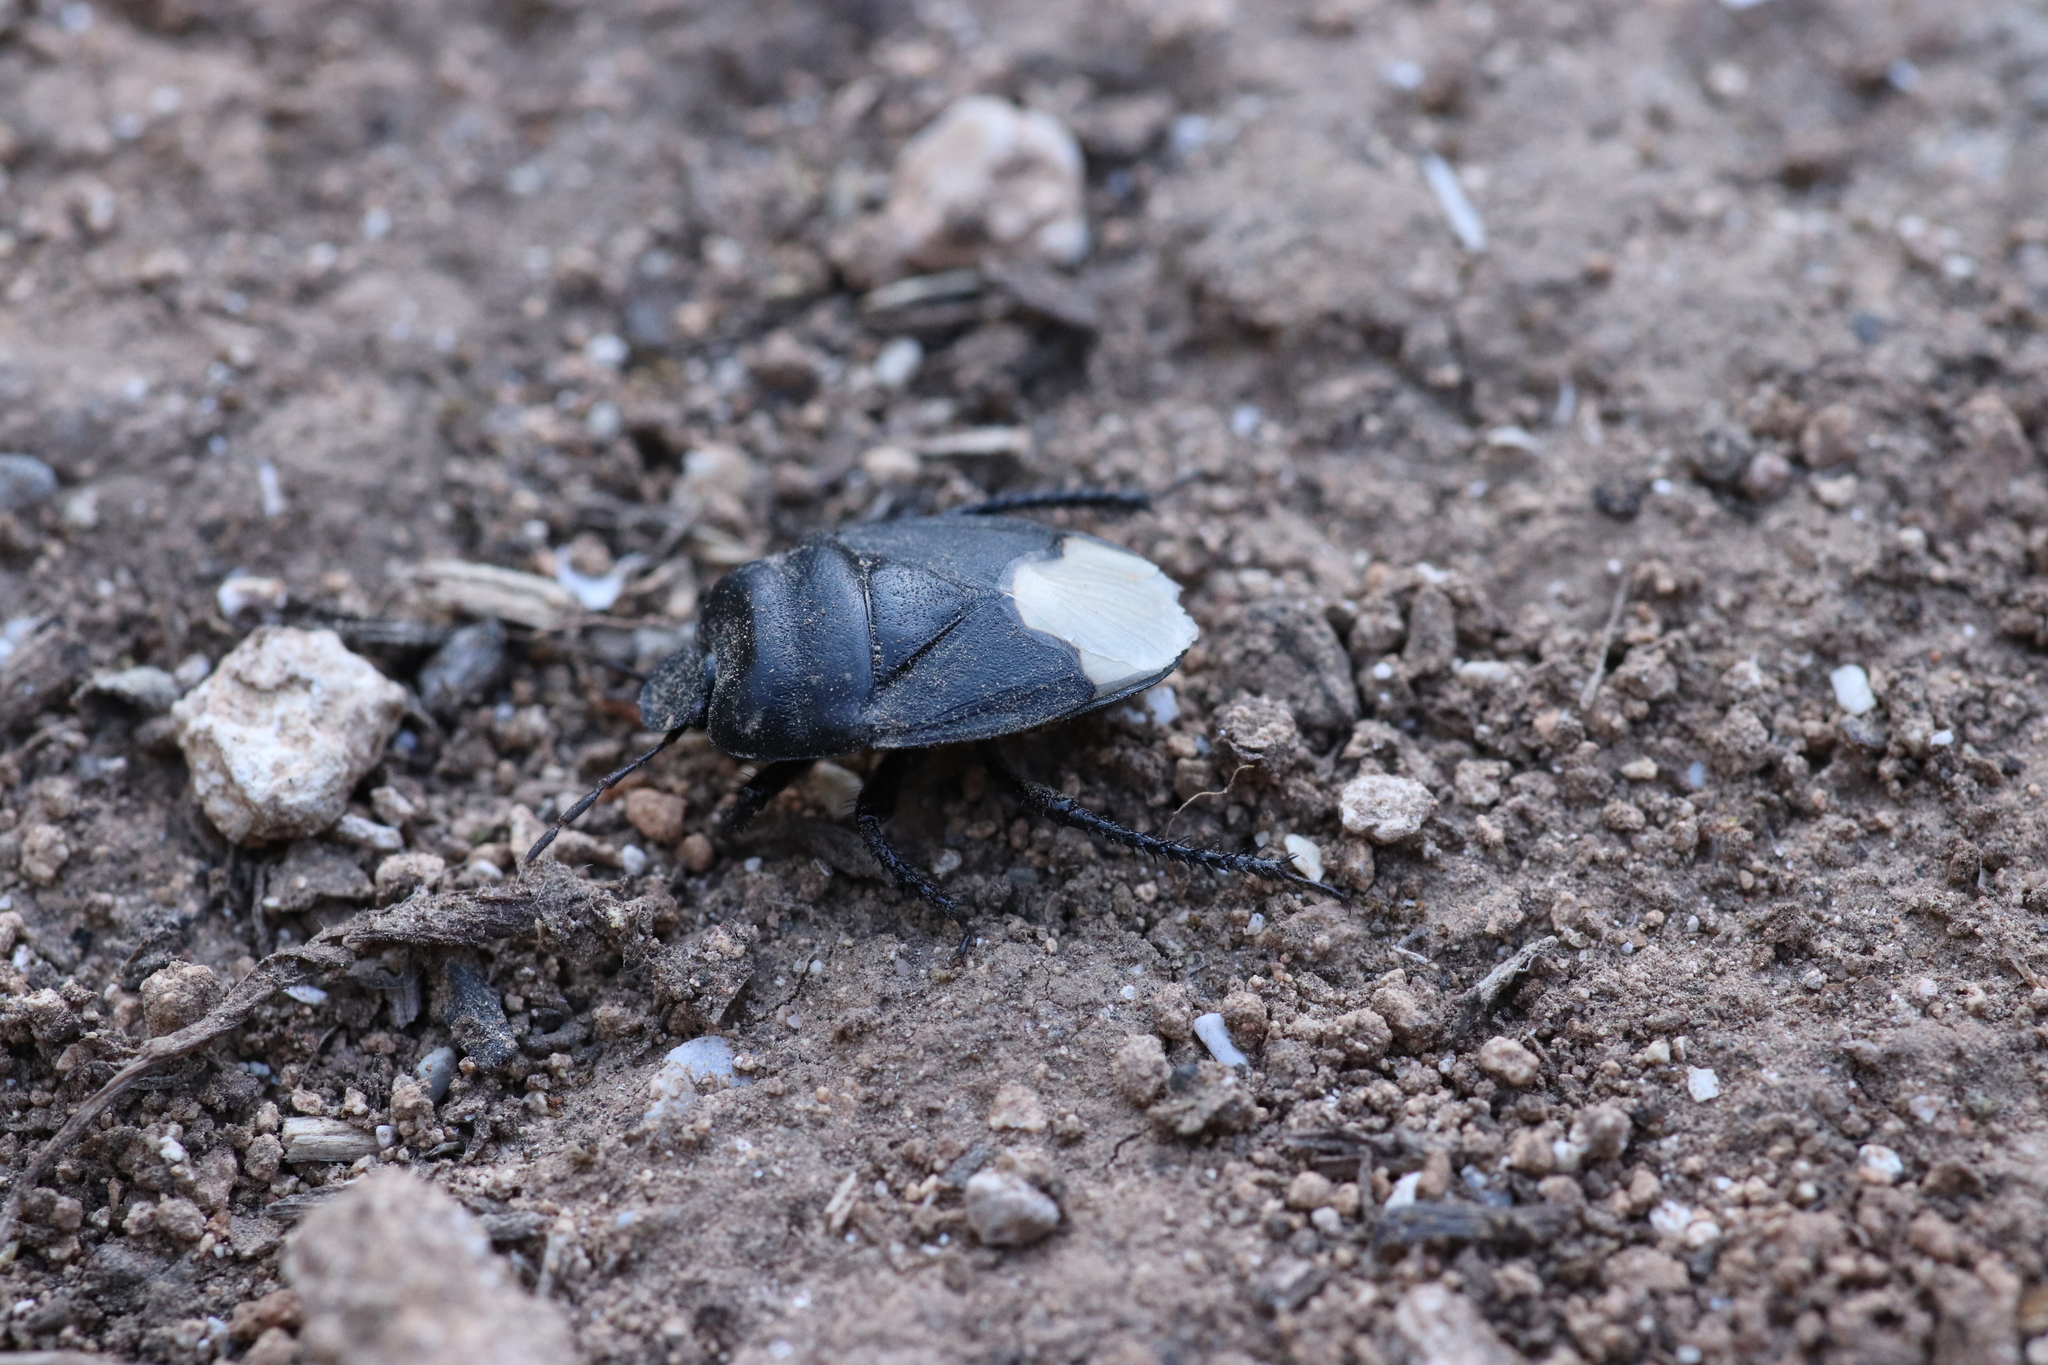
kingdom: Animalia
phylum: Arthropoda
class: Insecta
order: Hemiptera
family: Cydnidae
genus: Cydnus
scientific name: Cydnus aterrimus
